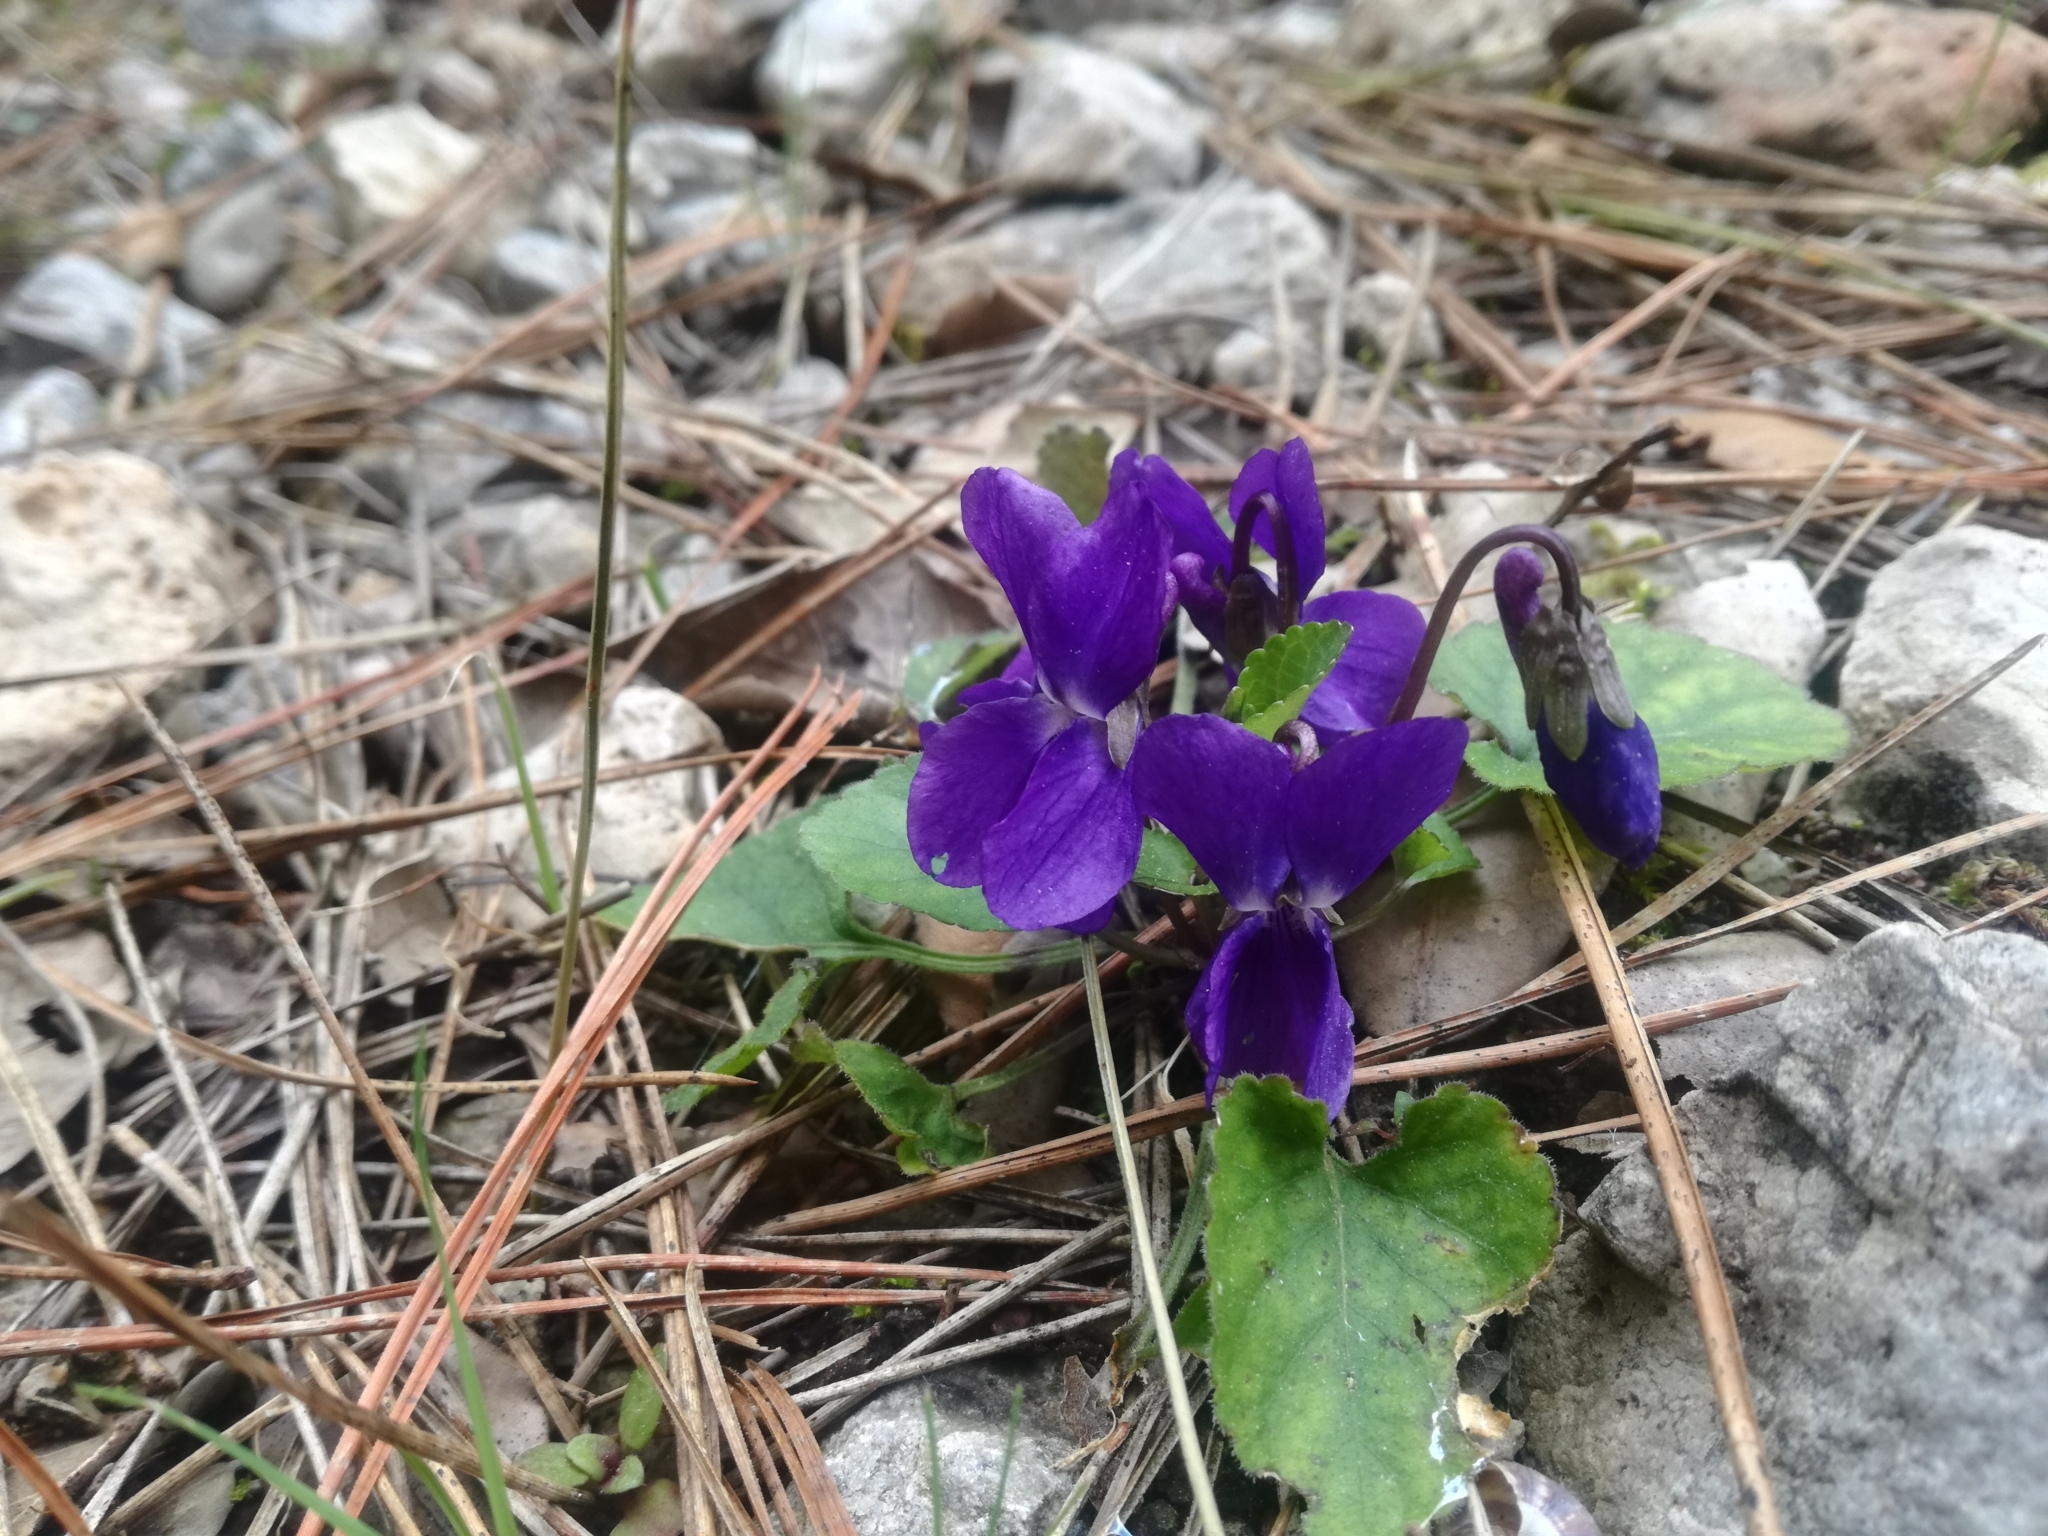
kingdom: Plantae
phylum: Tracheophyta
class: Magnoliopsida
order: Malpighiales
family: Violaceae
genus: Viola
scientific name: Viola odorata
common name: Sweet violet
